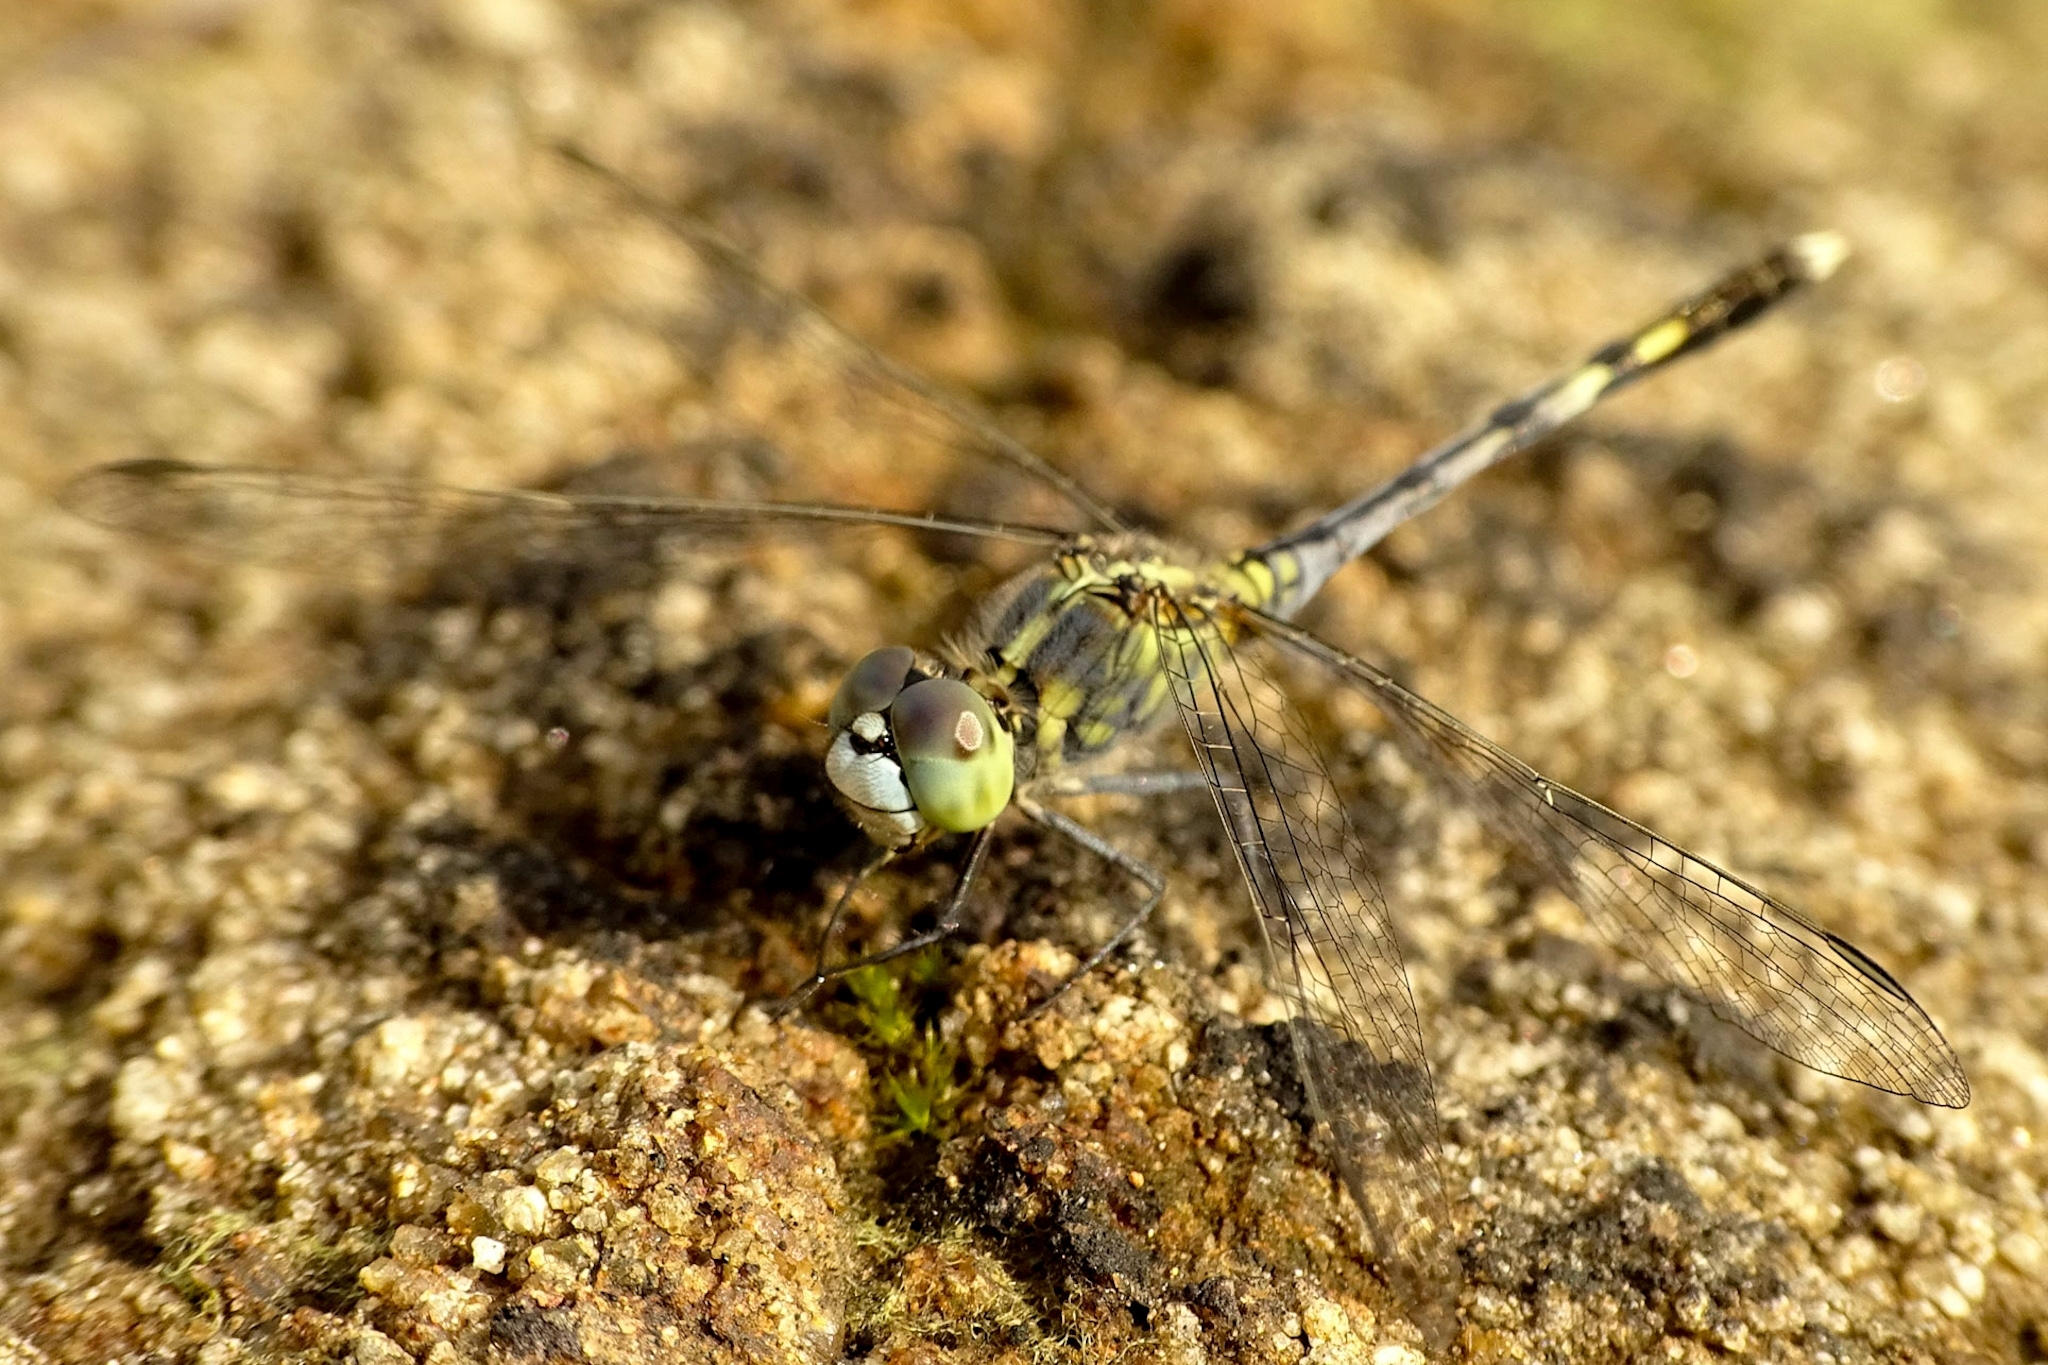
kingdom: Animalia
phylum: Arthropoda
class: Insecta
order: Odonata
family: Libellulidae
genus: Diplacodes
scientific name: Diplacodes trivialis
